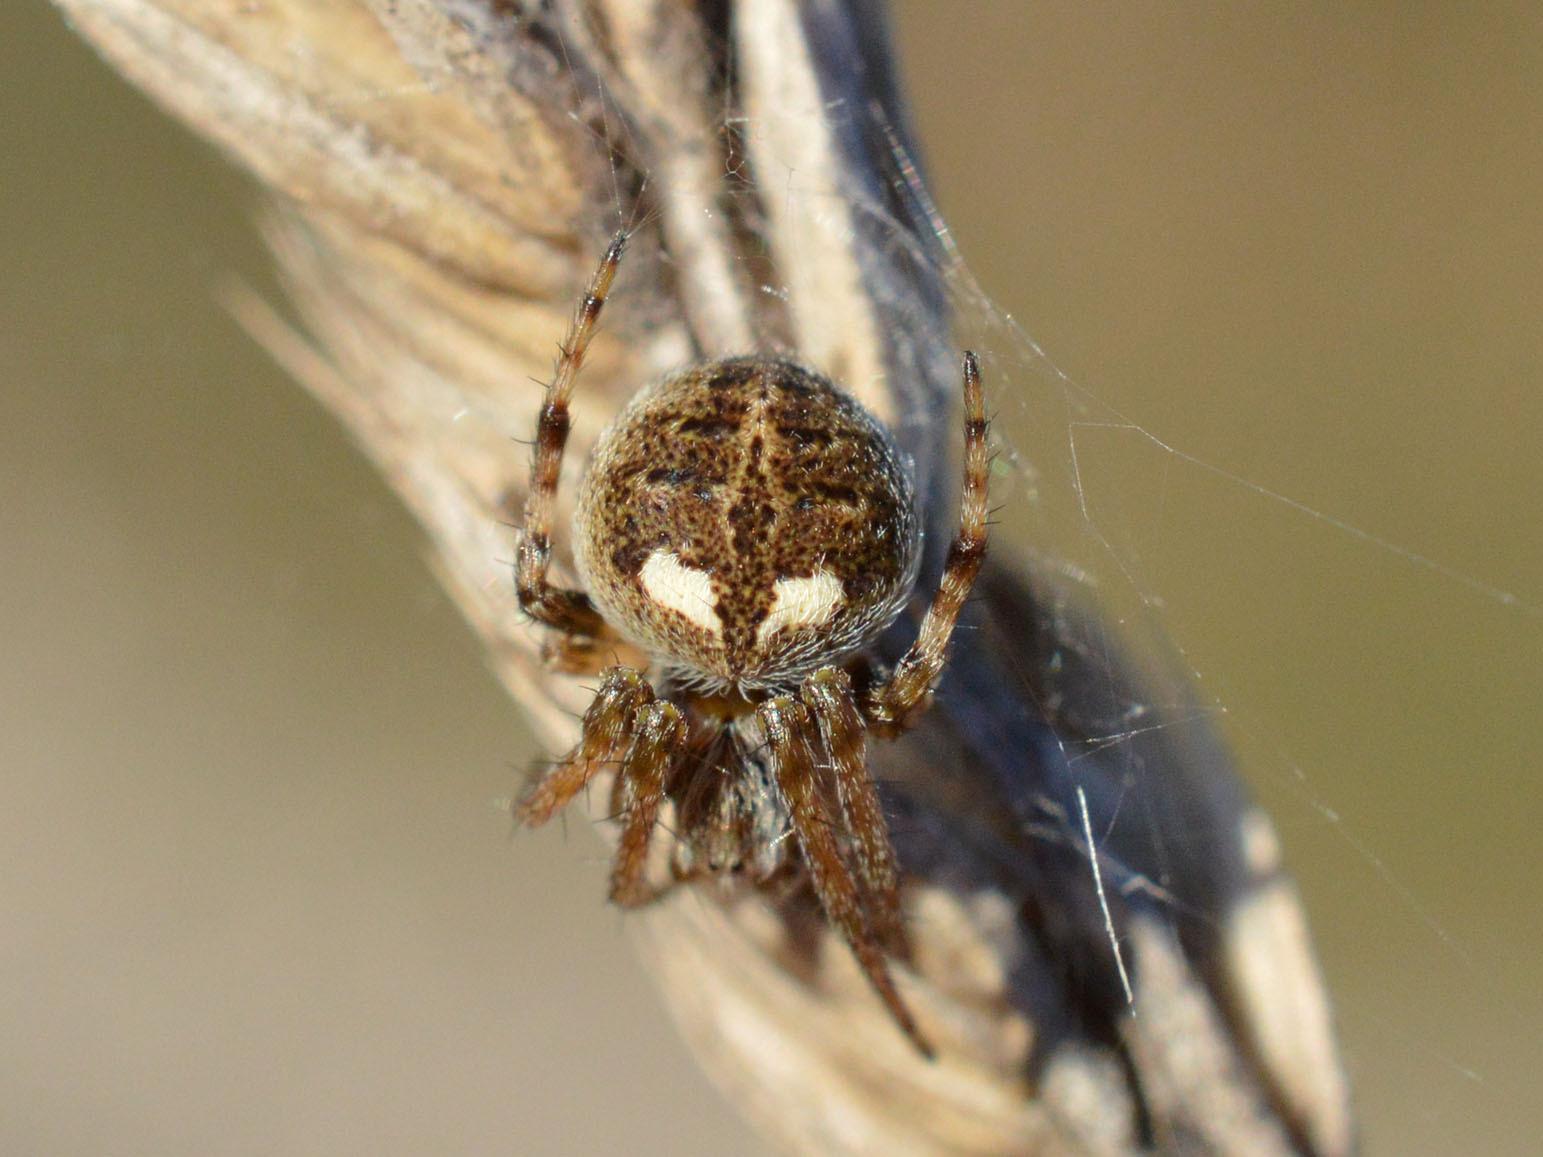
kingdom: Animalia
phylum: Arthropoda
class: Arachnida
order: Araneae
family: Araneidae
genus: Agalenatea
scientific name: Agalenatea redii
